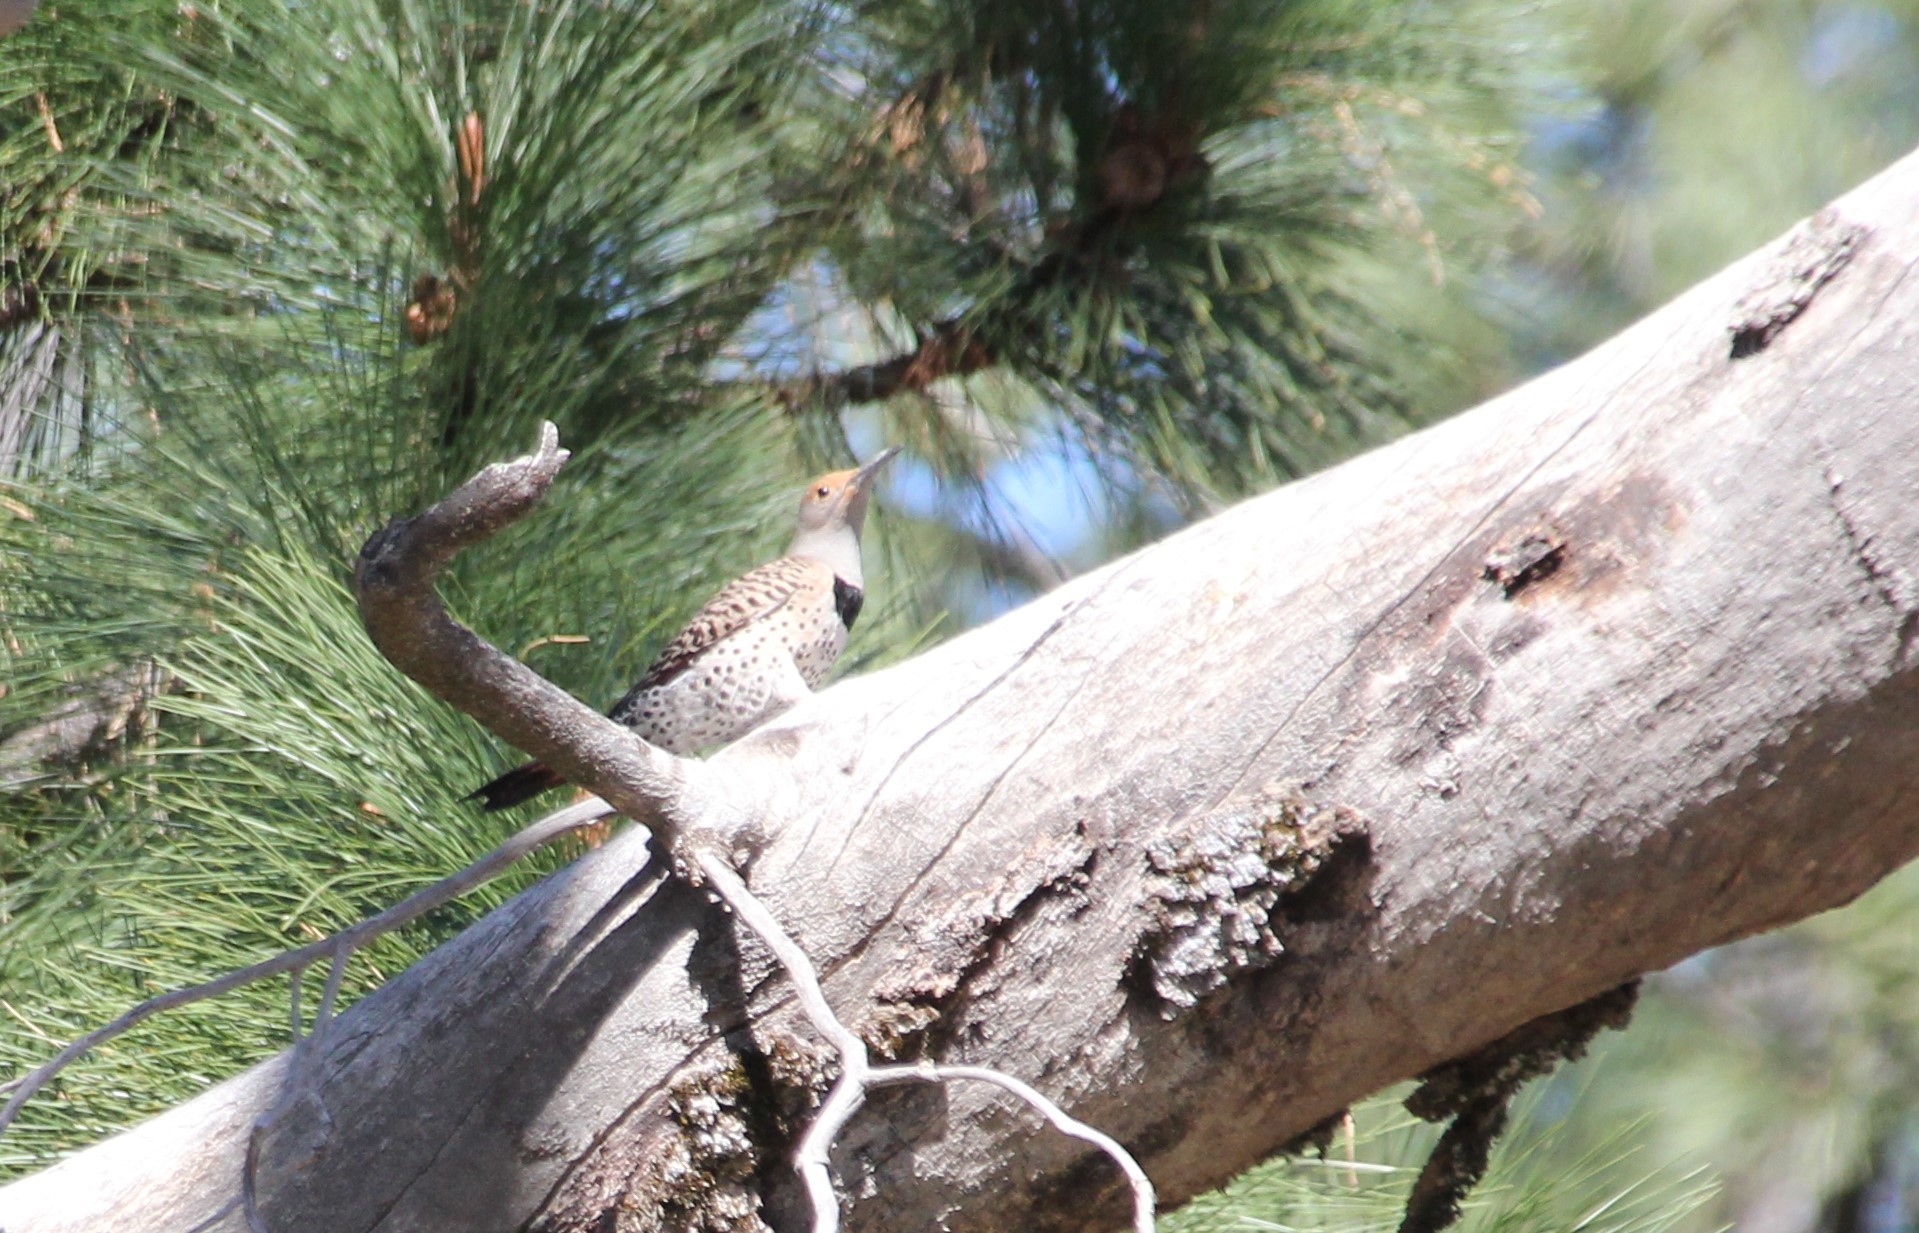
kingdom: Animalia
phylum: Chordata
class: Aves
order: Piciformes
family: Picidae
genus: Colaptes
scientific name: Colaptes auratus
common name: Northern flicker
